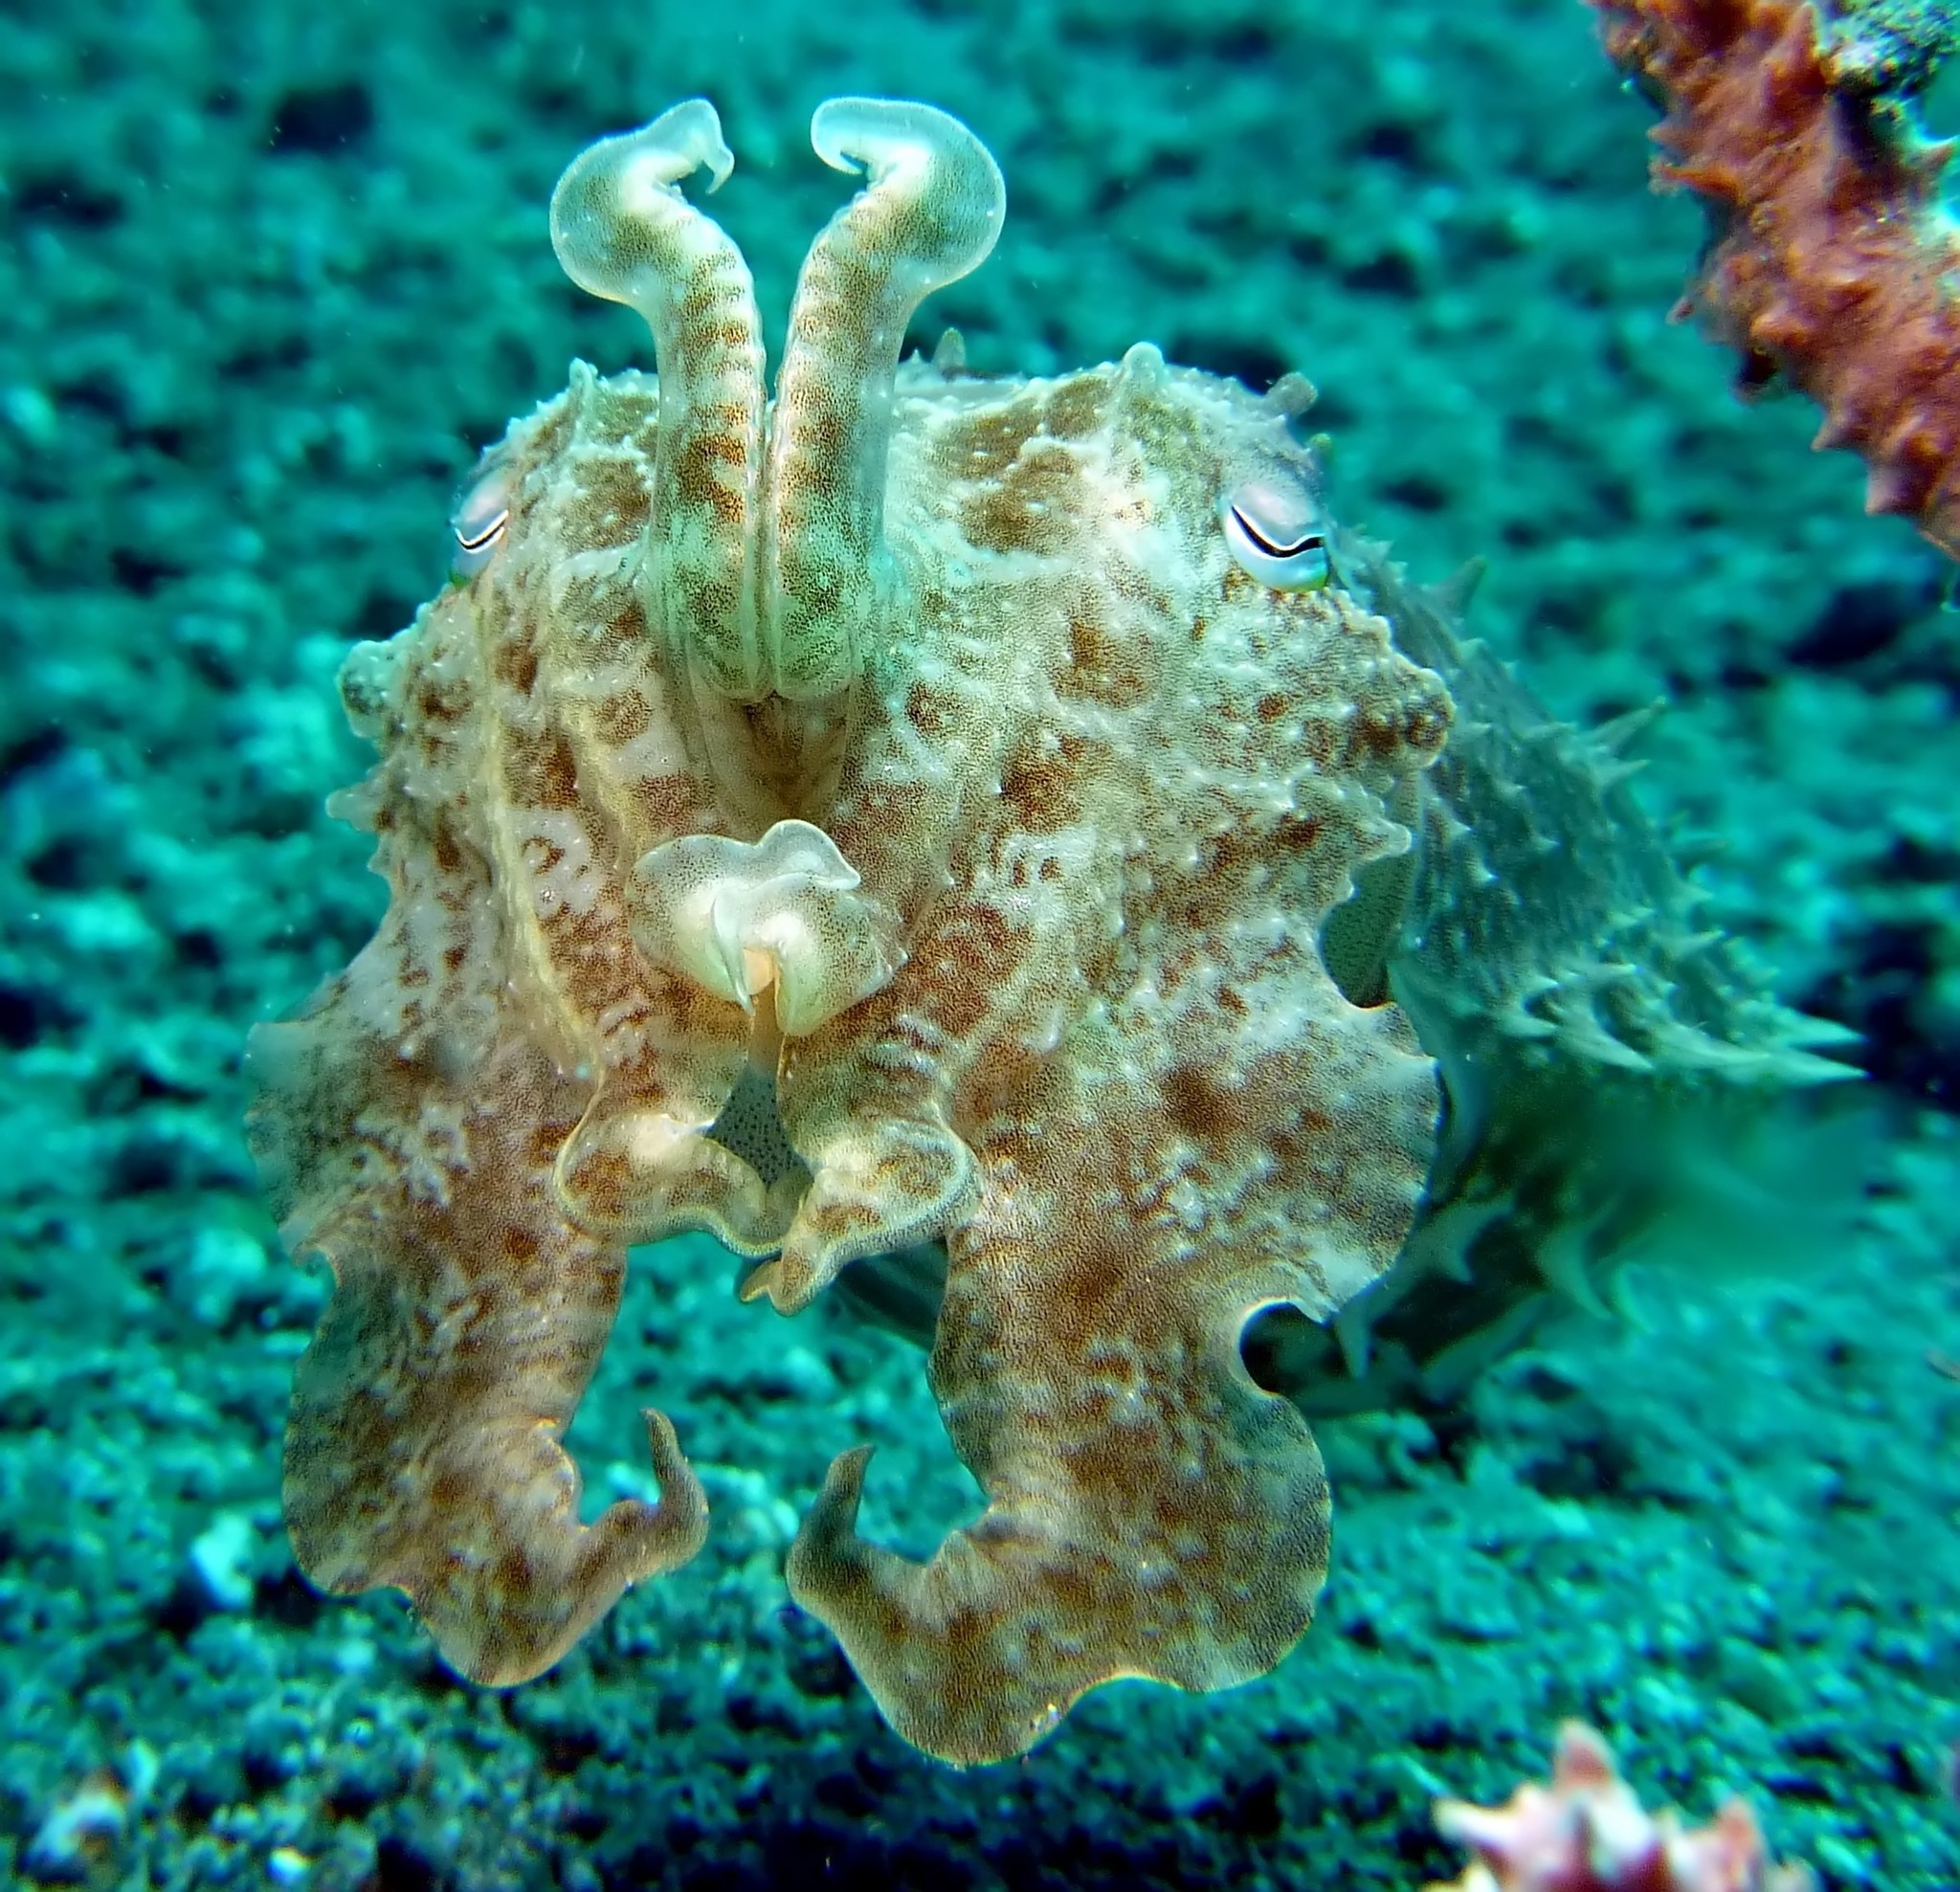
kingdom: Animalia
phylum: Mollusca
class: Cephalopoda
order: Sepiida
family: Sepiidae
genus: Ascarosepion
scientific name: Ascarosepion latimanus
